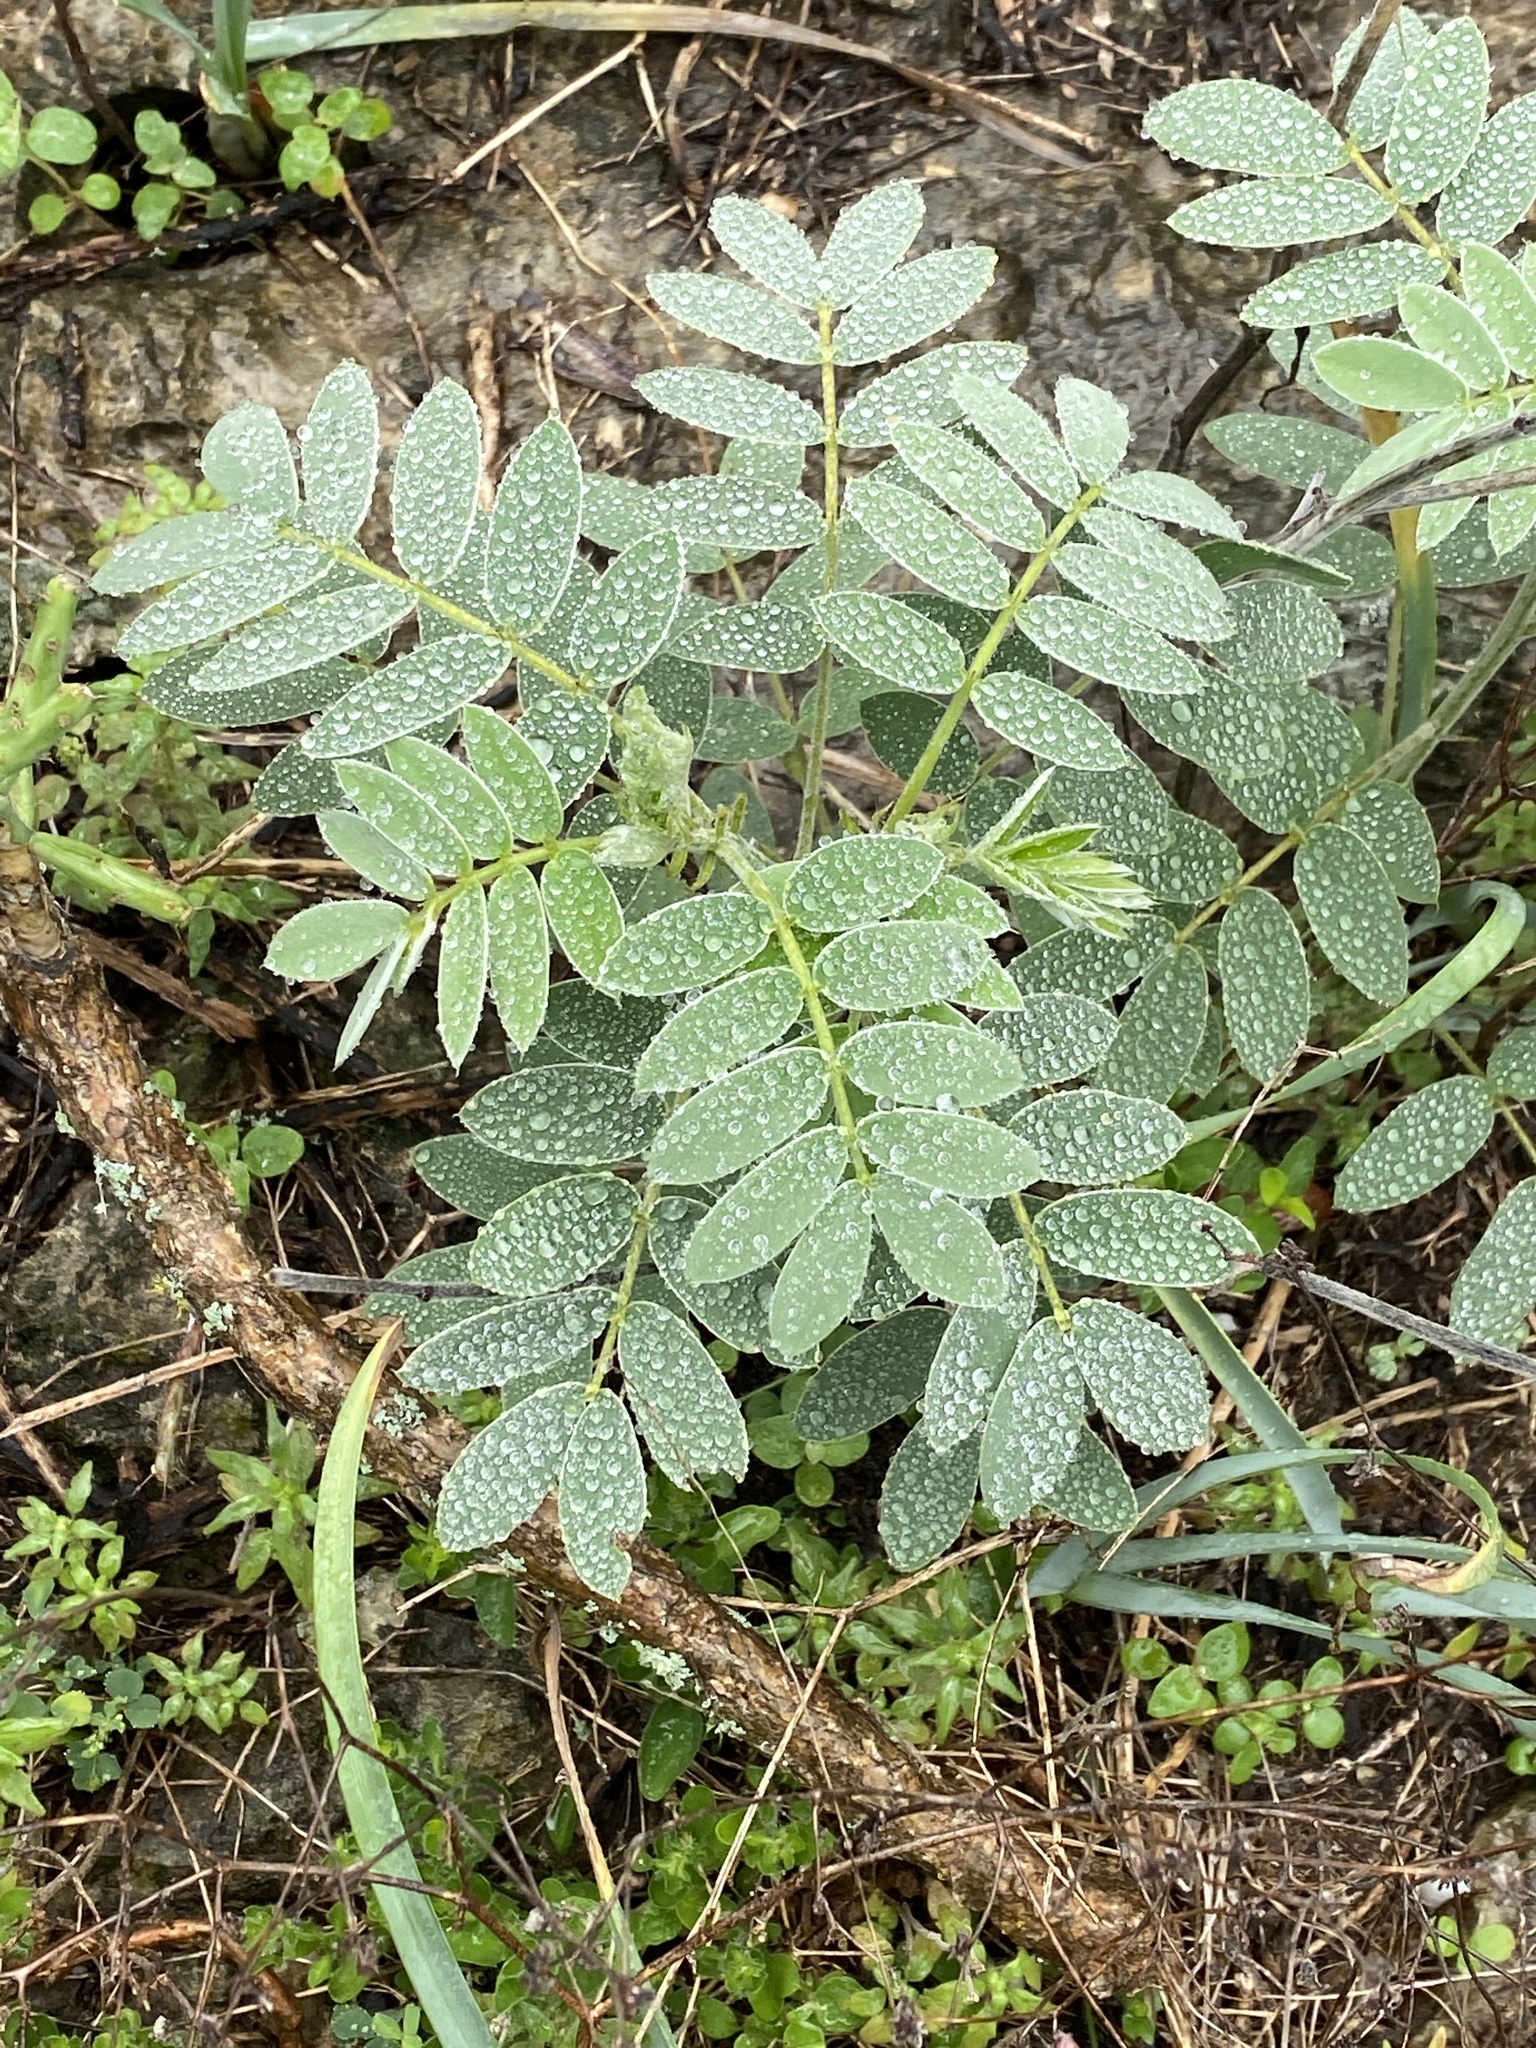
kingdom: Plantae
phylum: Tracheophyta
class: Magnoliopsida
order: Fabales
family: Fabaceae
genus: Senna
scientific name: Senna lindheimeriana
